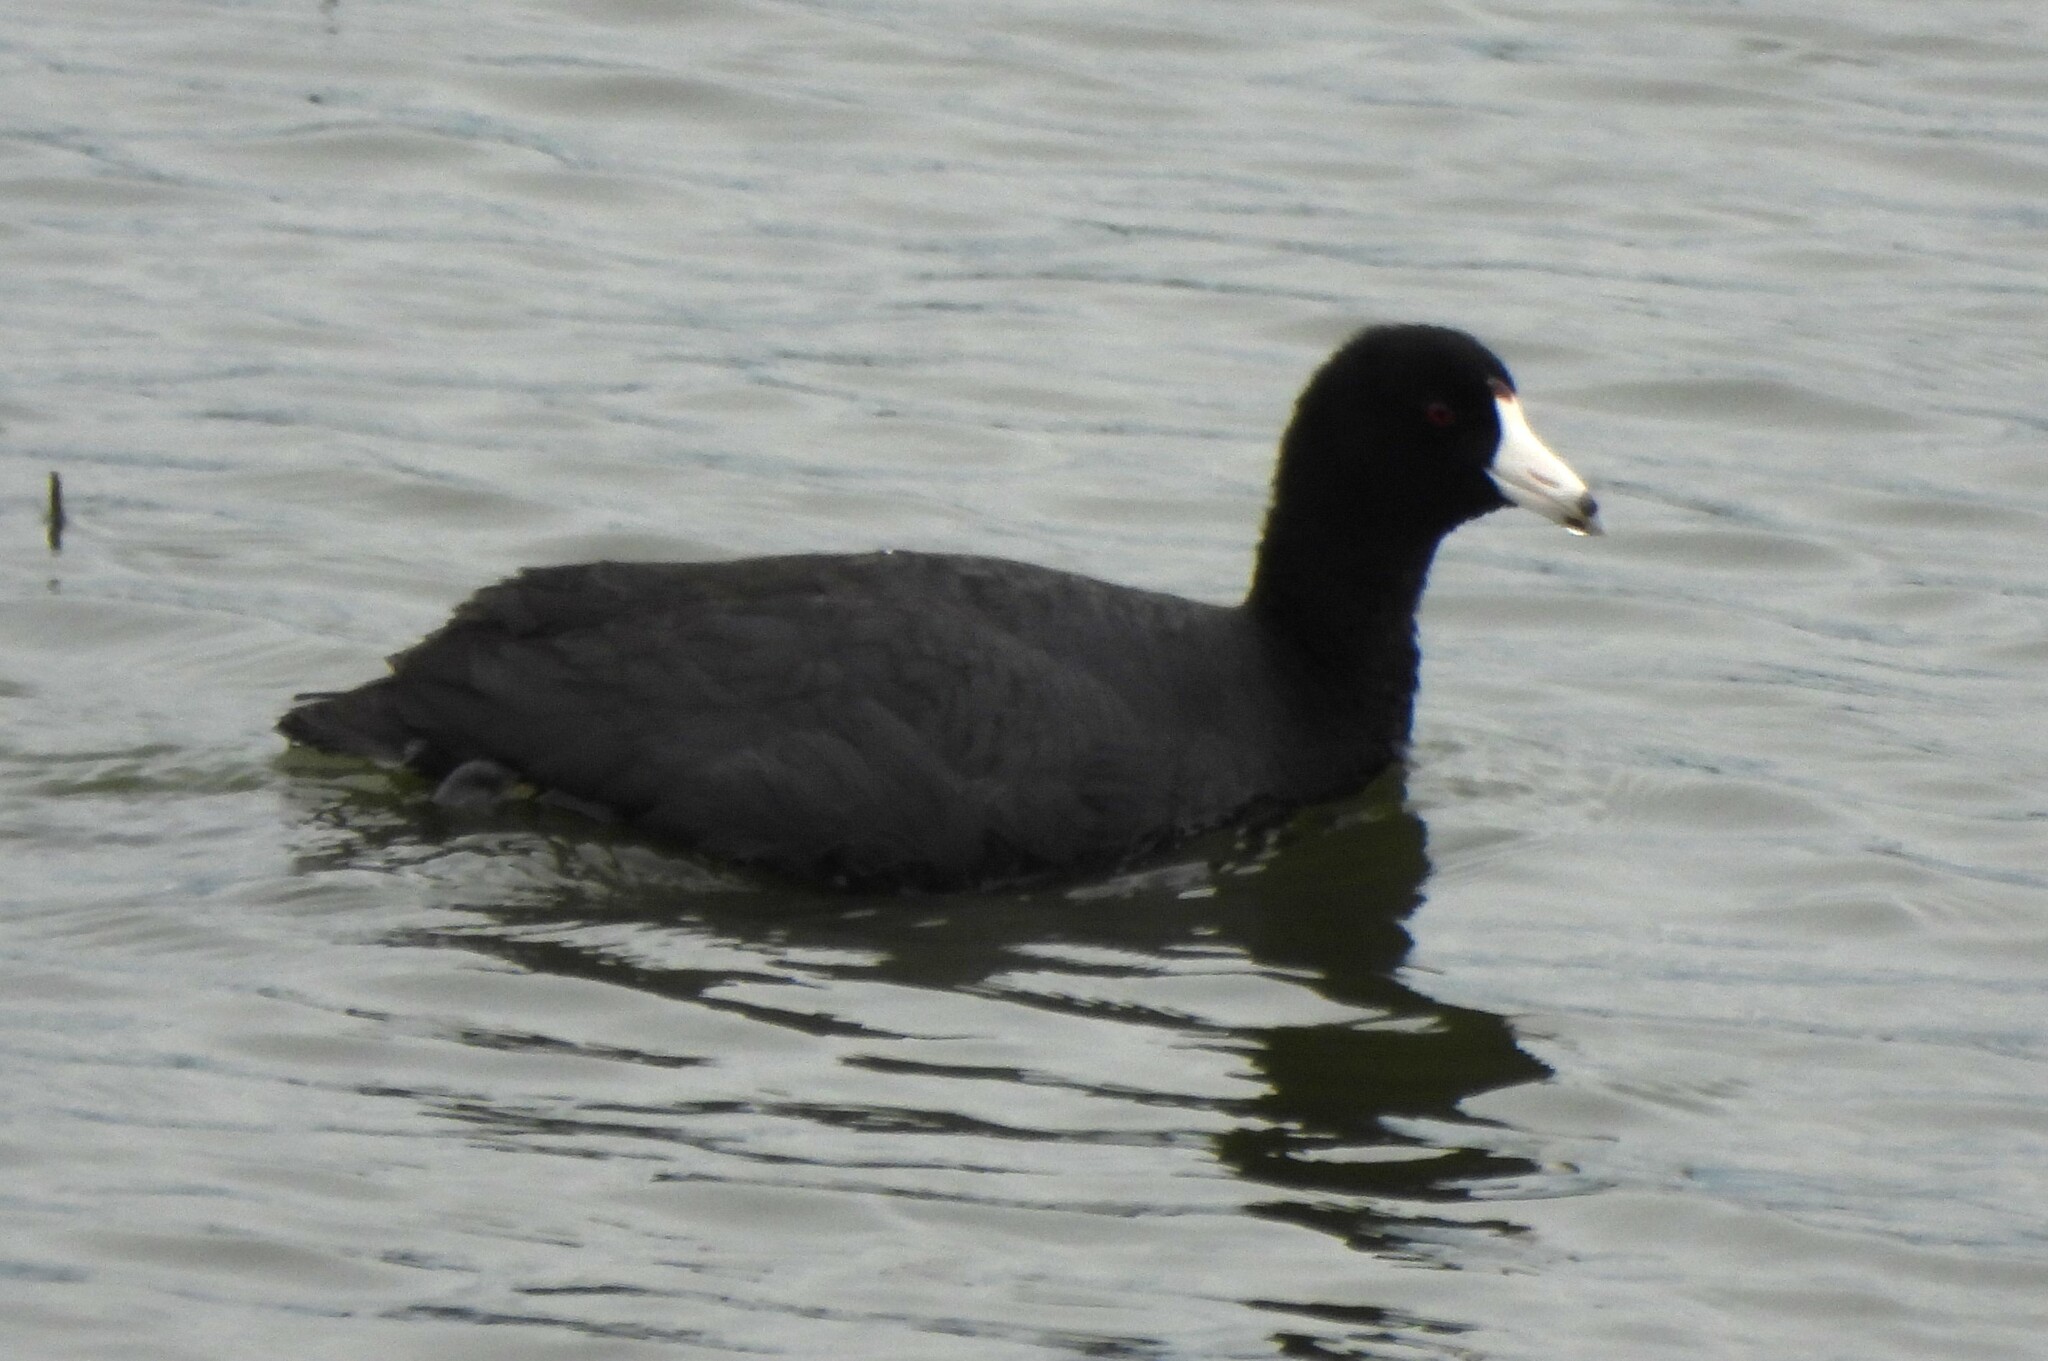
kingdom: Animalia
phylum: Chordata
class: Aves
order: Gruiformes
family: Rallidae
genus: Fulica
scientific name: Fulica americana
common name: American coot
